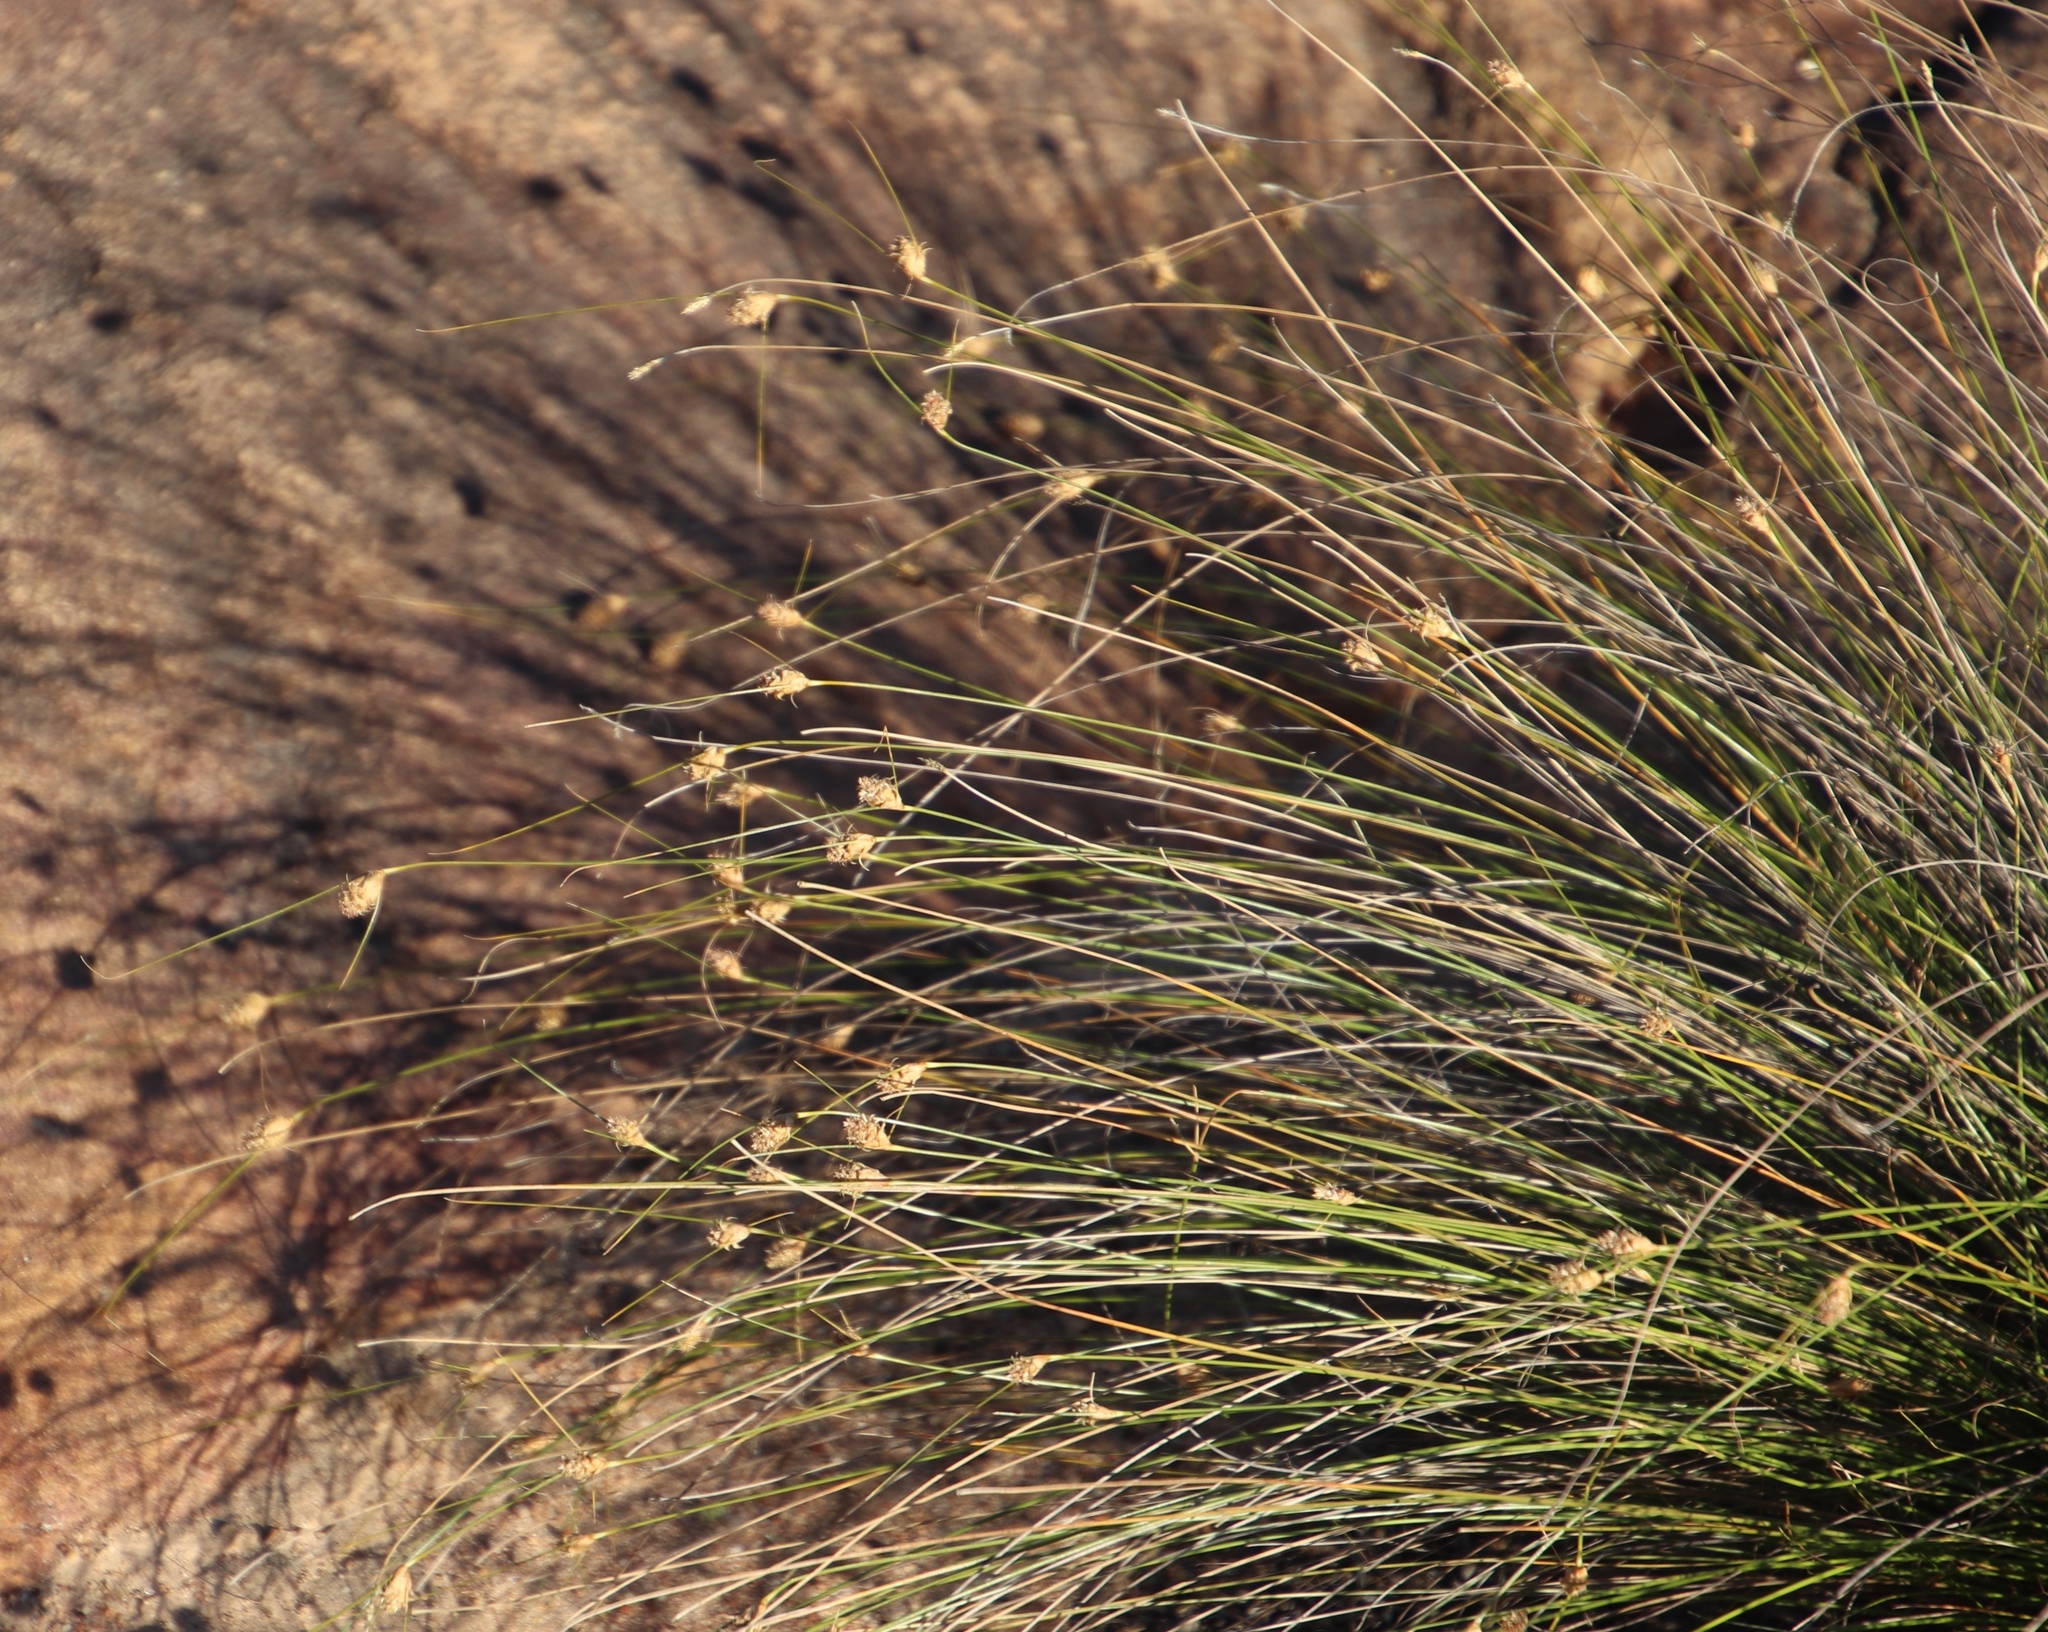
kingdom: Plantae
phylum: Tracheophyta
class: Liliopsida
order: Poales
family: Cyperaceae
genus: Ficinia
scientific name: Ficinia nigrescens
